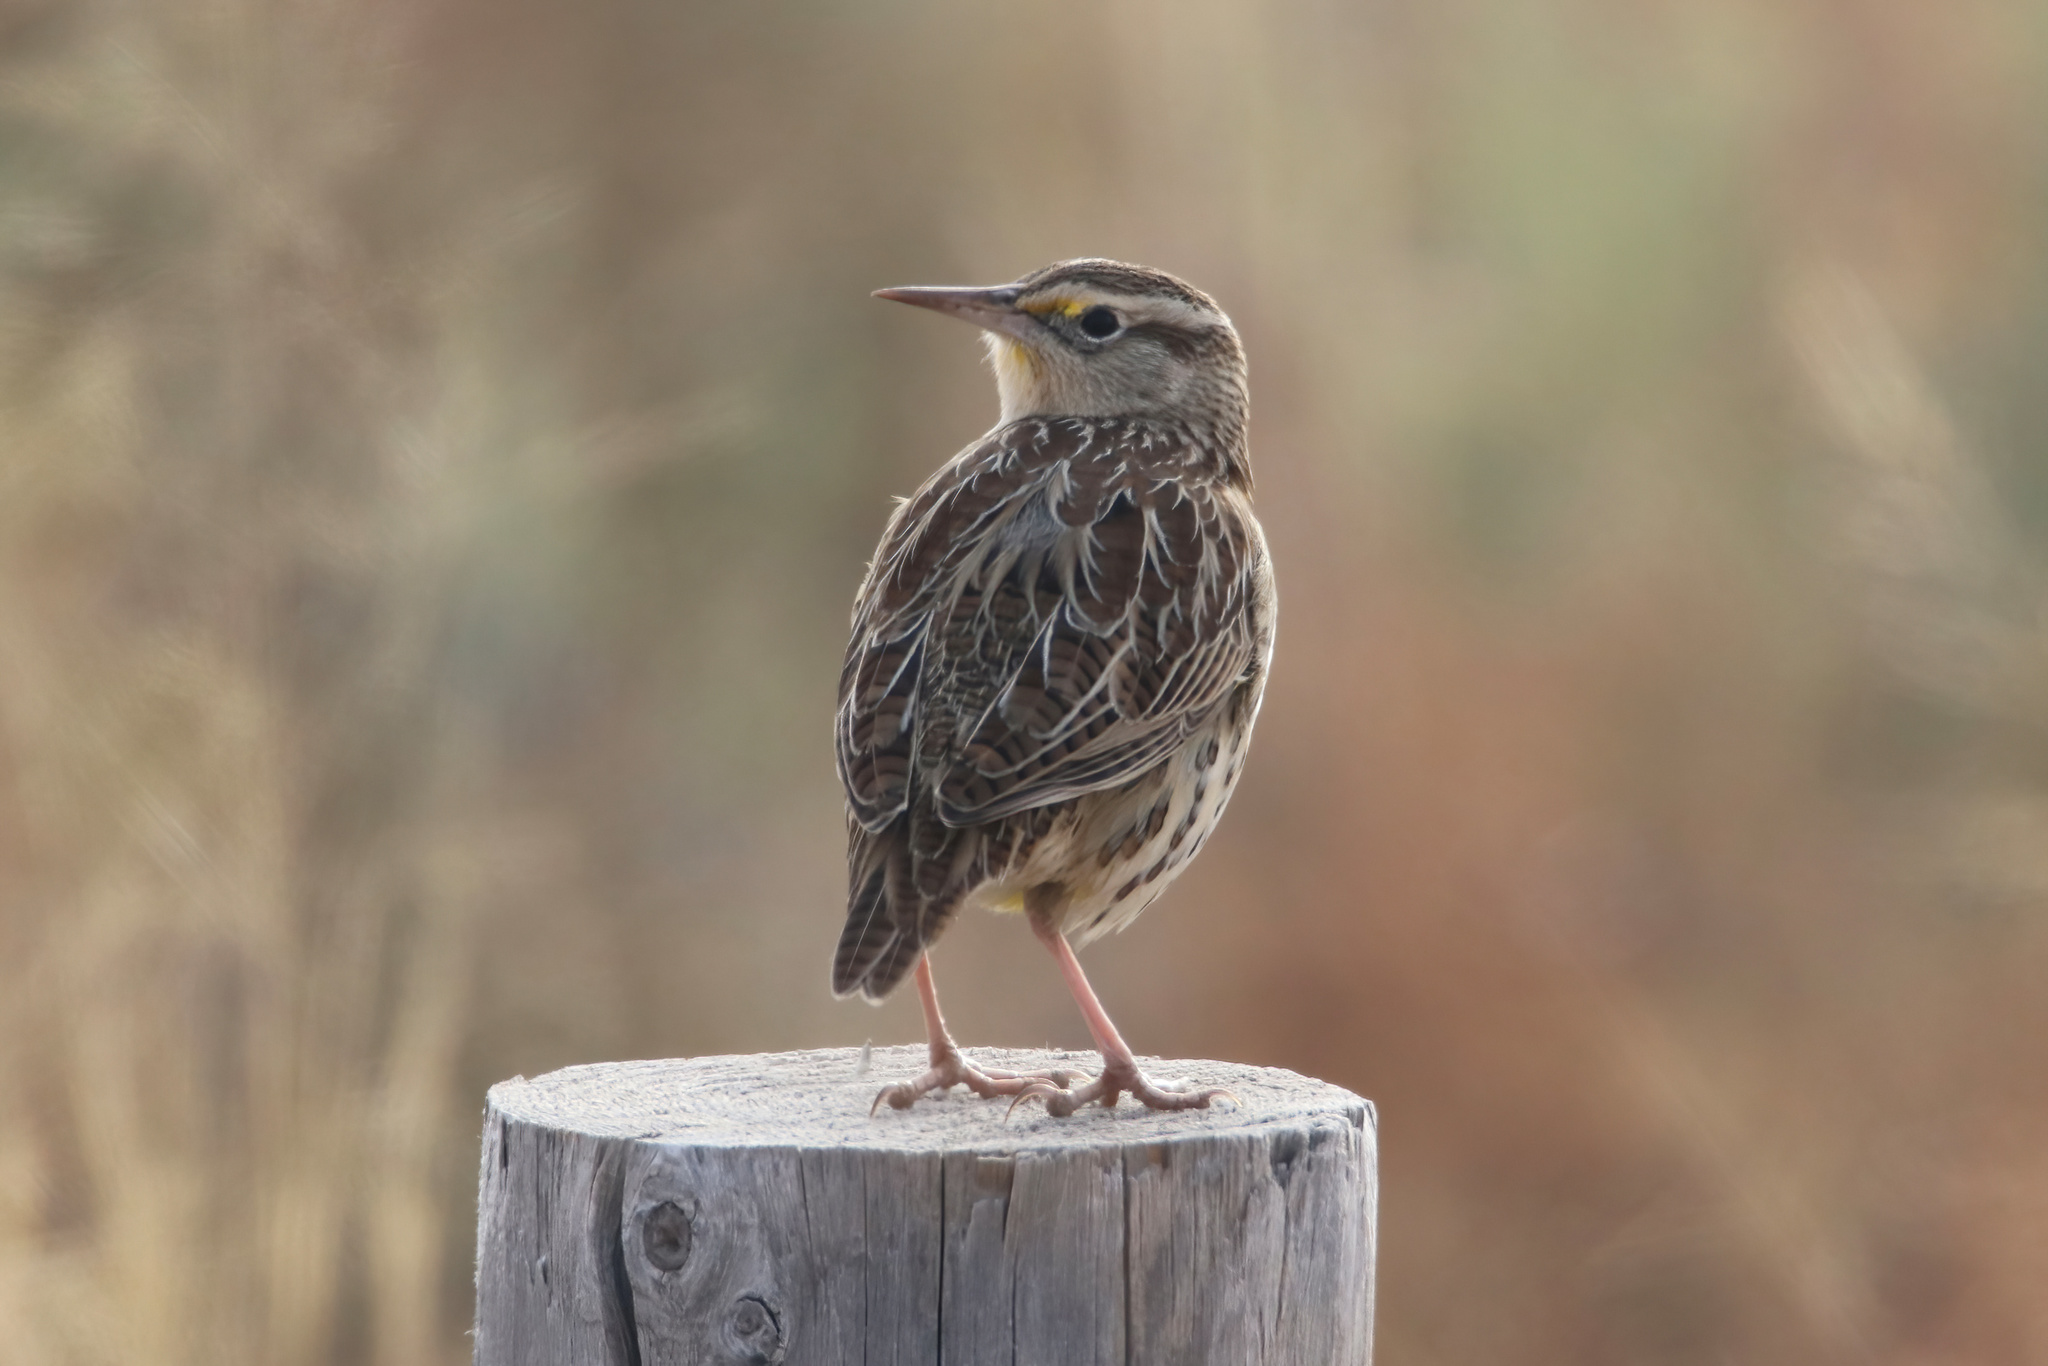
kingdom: Animalia
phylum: Chordata
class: Aves
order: Passeriformes
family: Icteridae
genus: Sturnella
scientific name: Sturnella neglecta
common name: Western meadowlark
